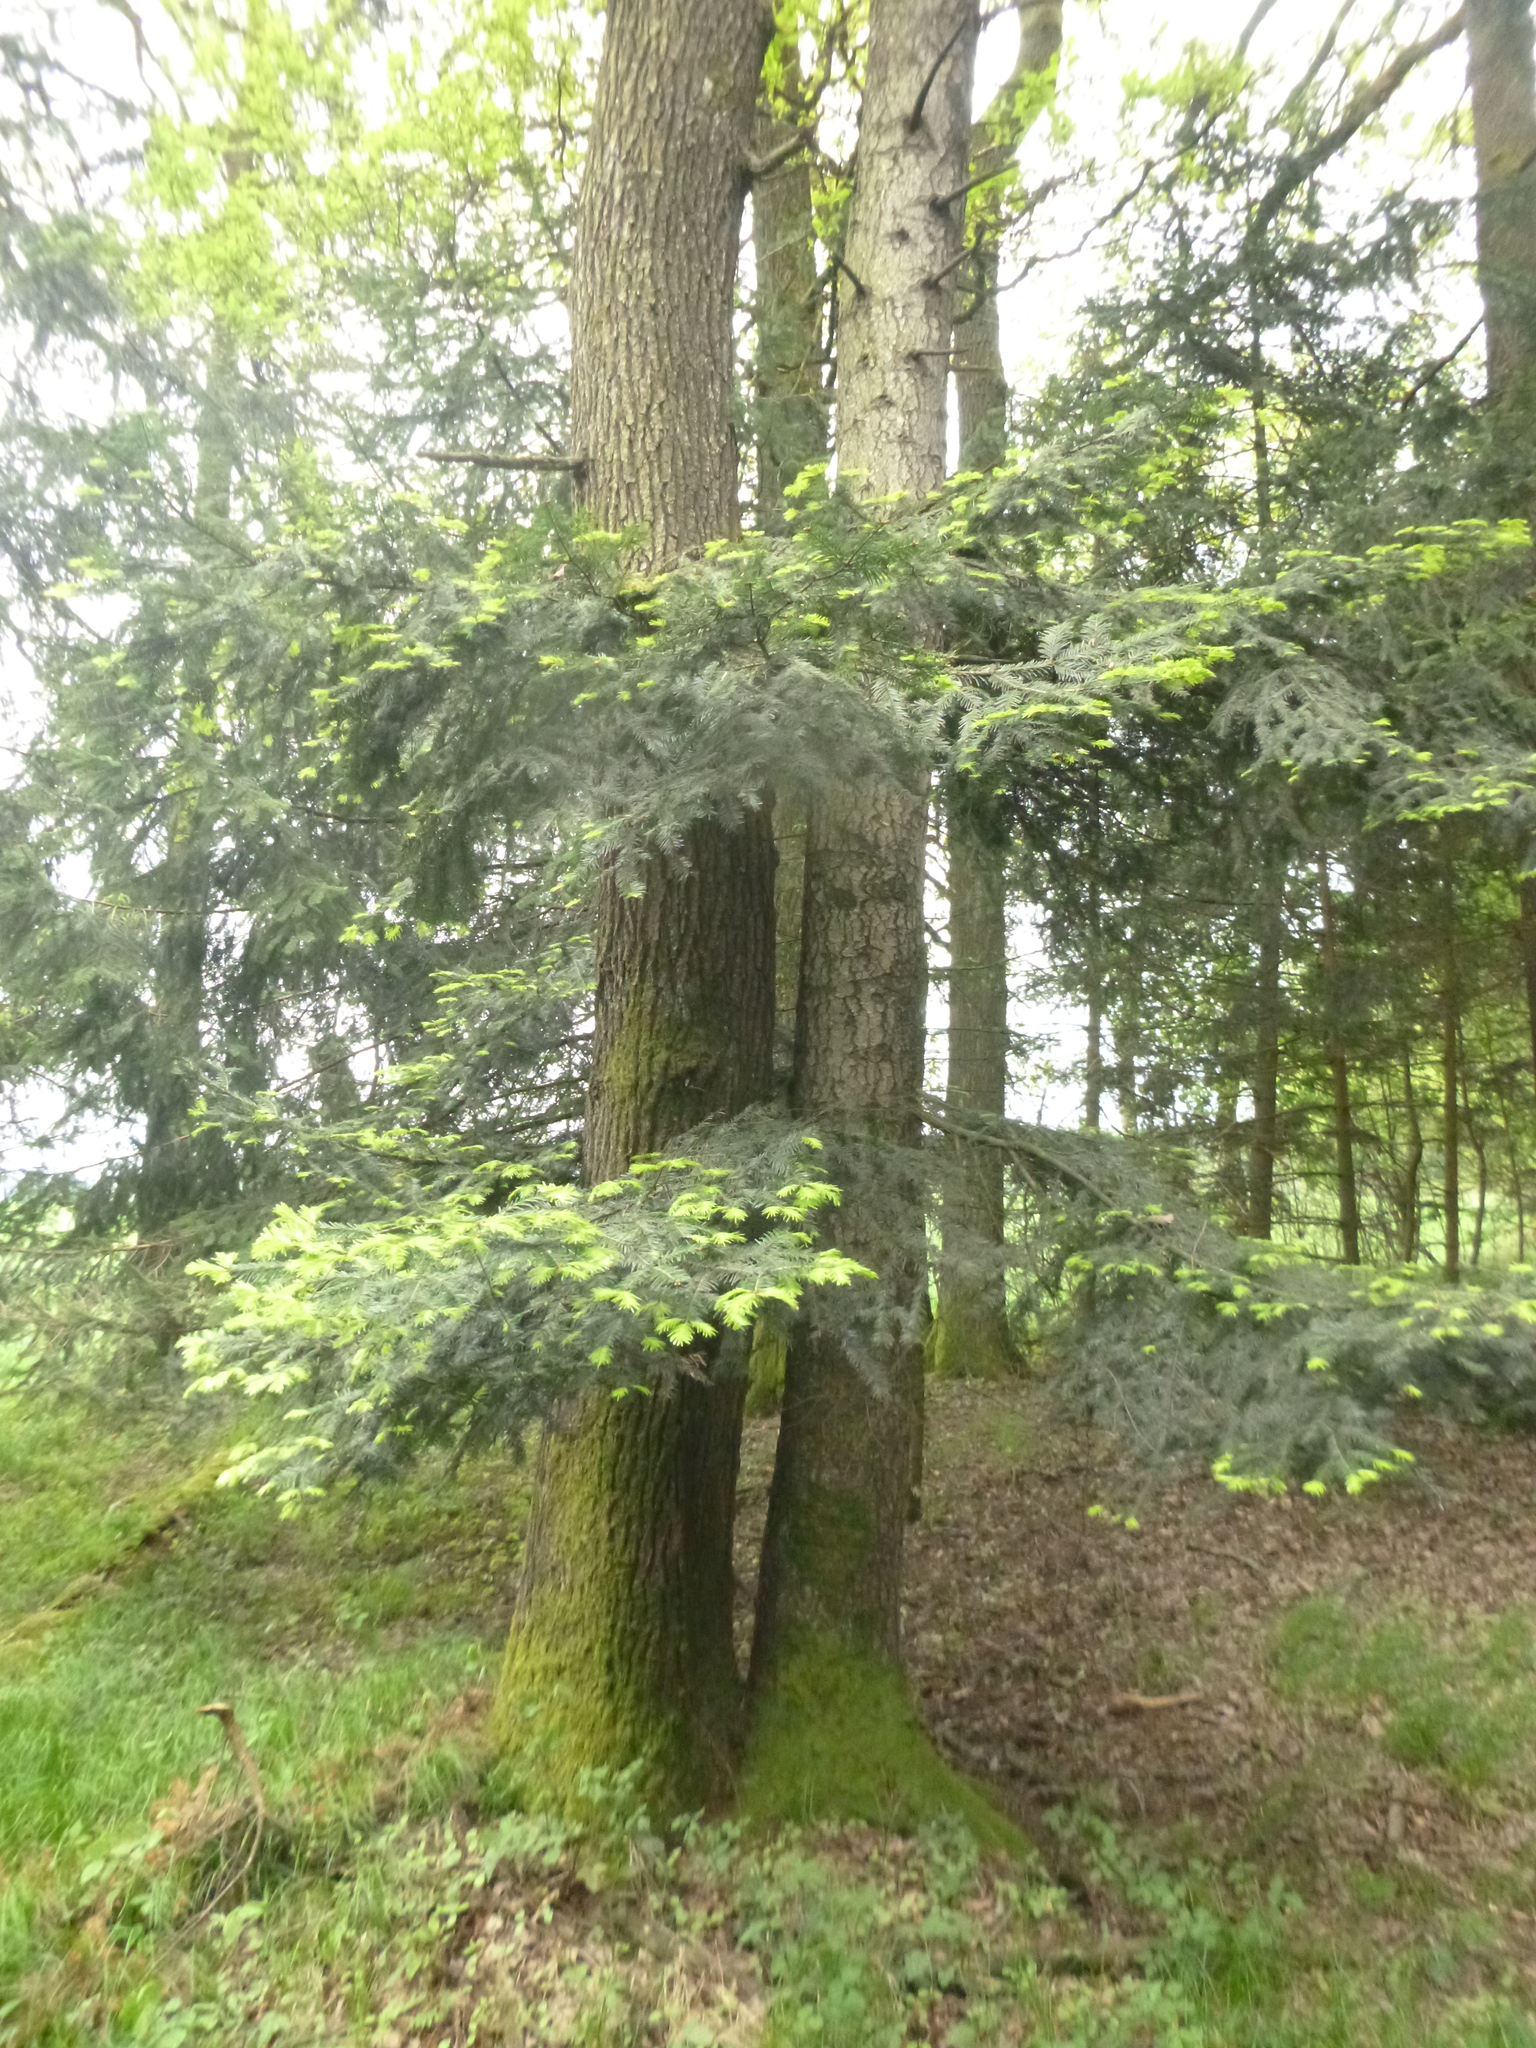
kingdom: Plantae
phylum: Tracheophyta
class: Pinopsida
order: Pinales
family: Pinaceae
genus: Abies
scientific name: Abies alba
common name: Silver fir
